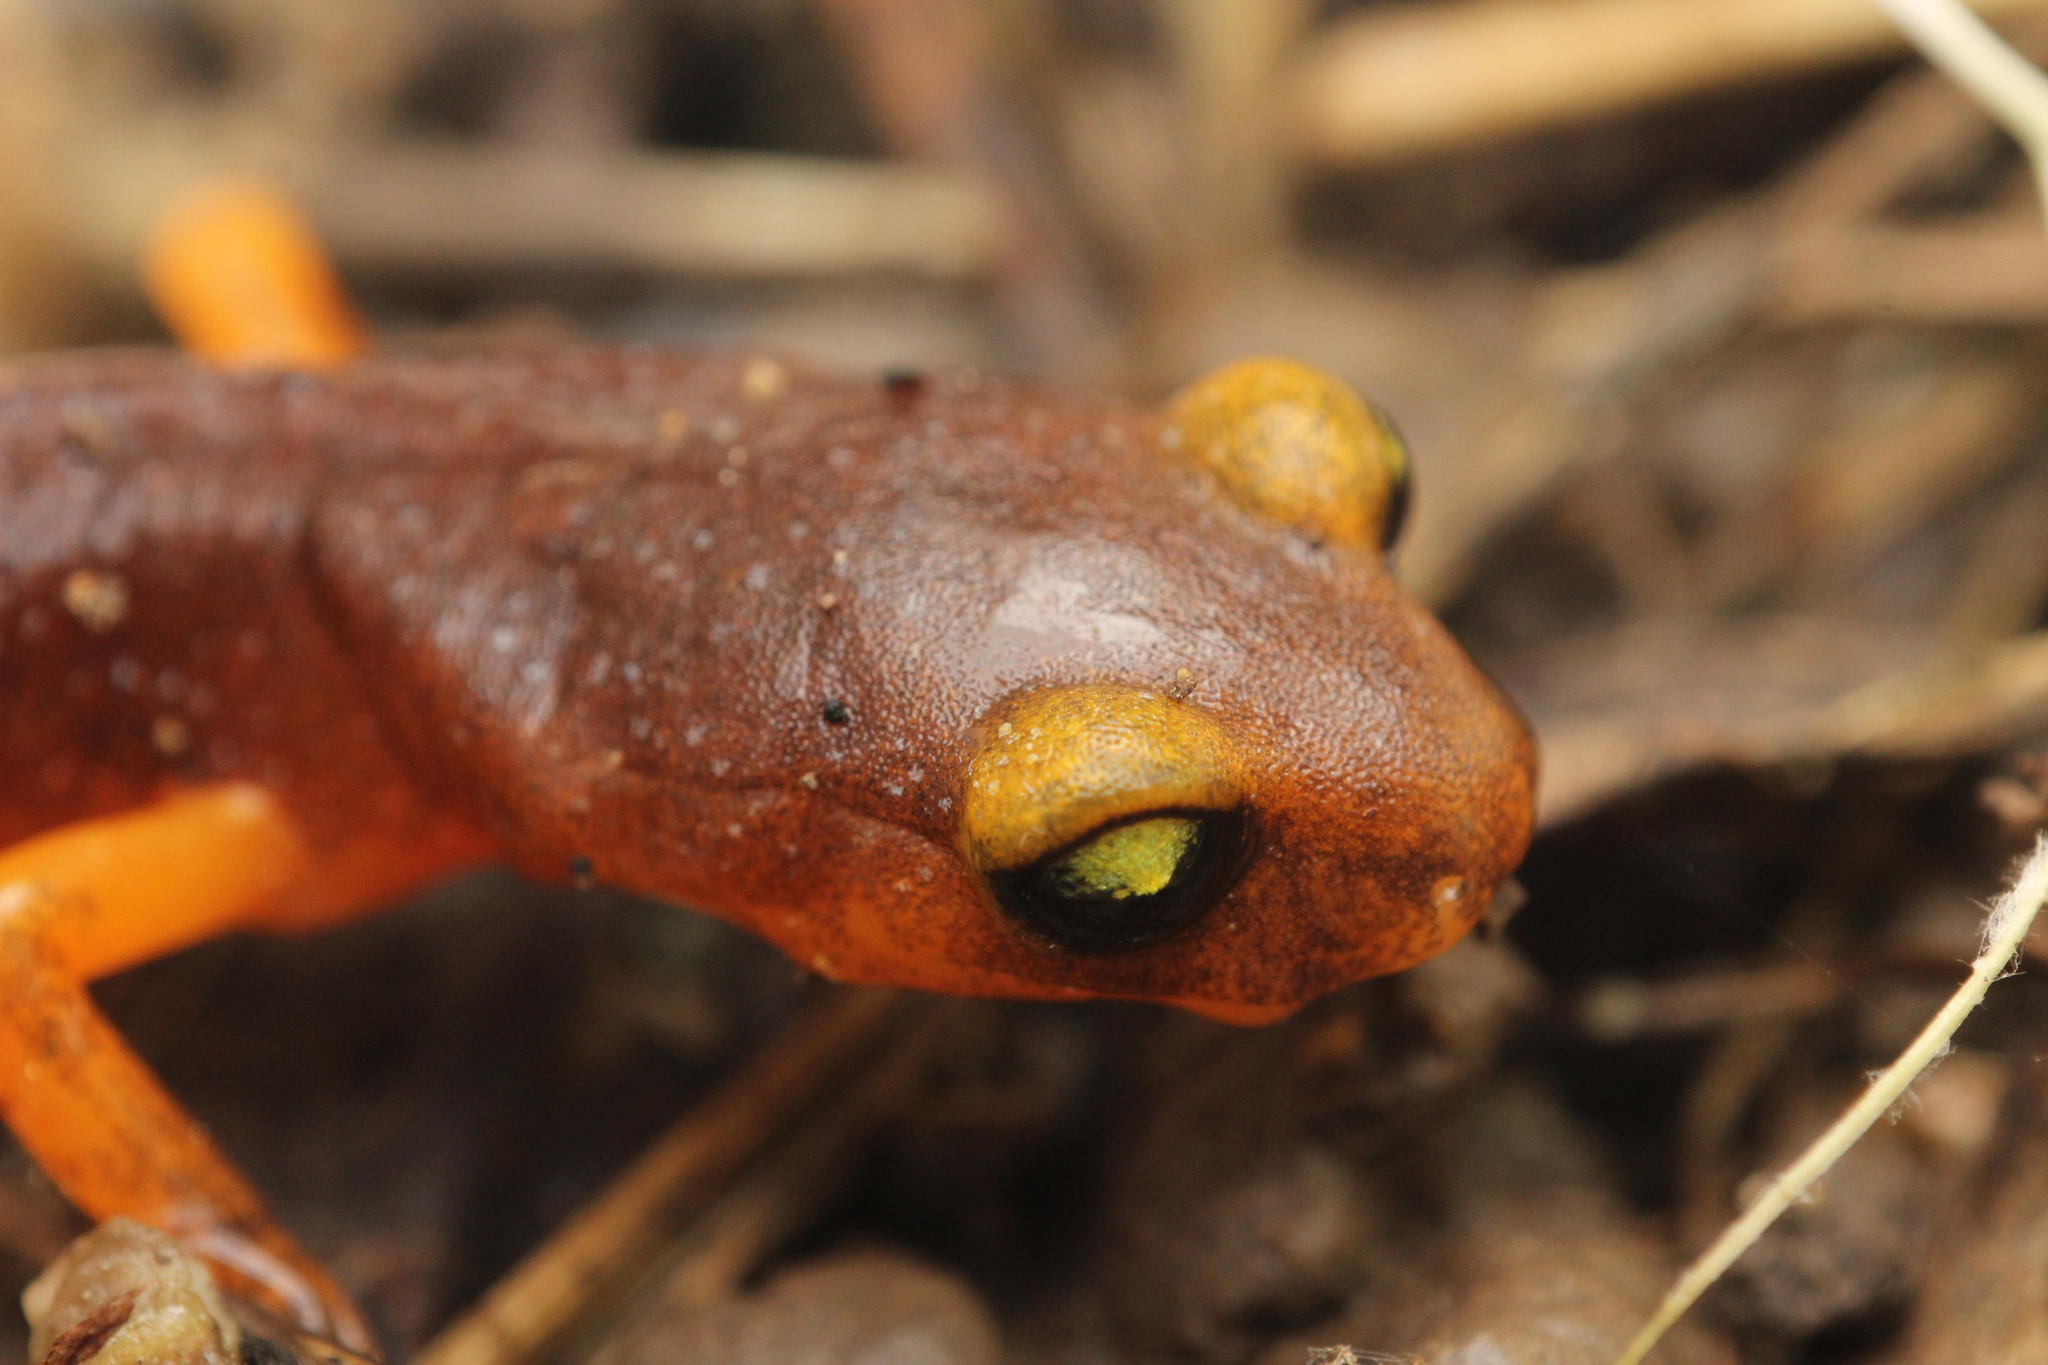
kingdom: Animalia
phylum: Chordata
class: Amphibia
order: Caudata
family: Plethodontidae
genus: Ensatina
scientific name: Ensatina eschscholtzii
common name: Ensatina
